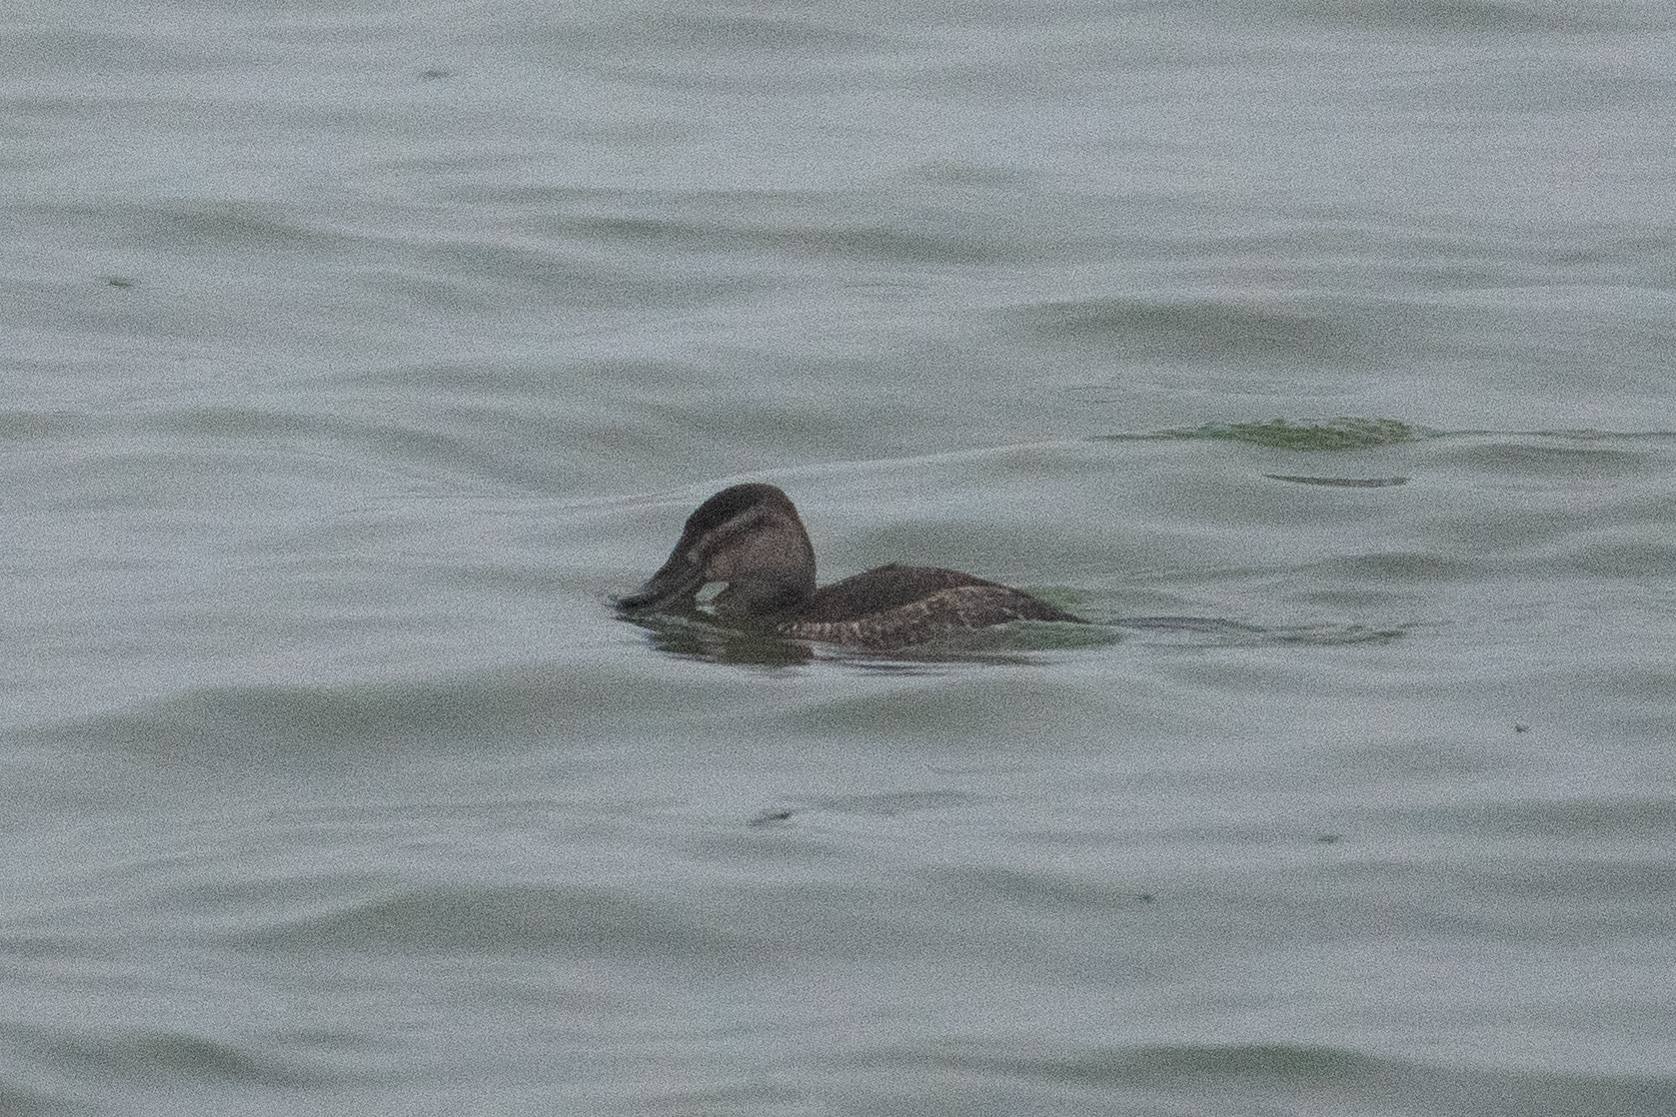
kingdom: Animalia
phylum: Chordata
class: Aves
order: Anseriformes
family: Anatidae
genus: Oxyura
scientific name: Oxyura jamaicensis
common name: Ruddy duck
